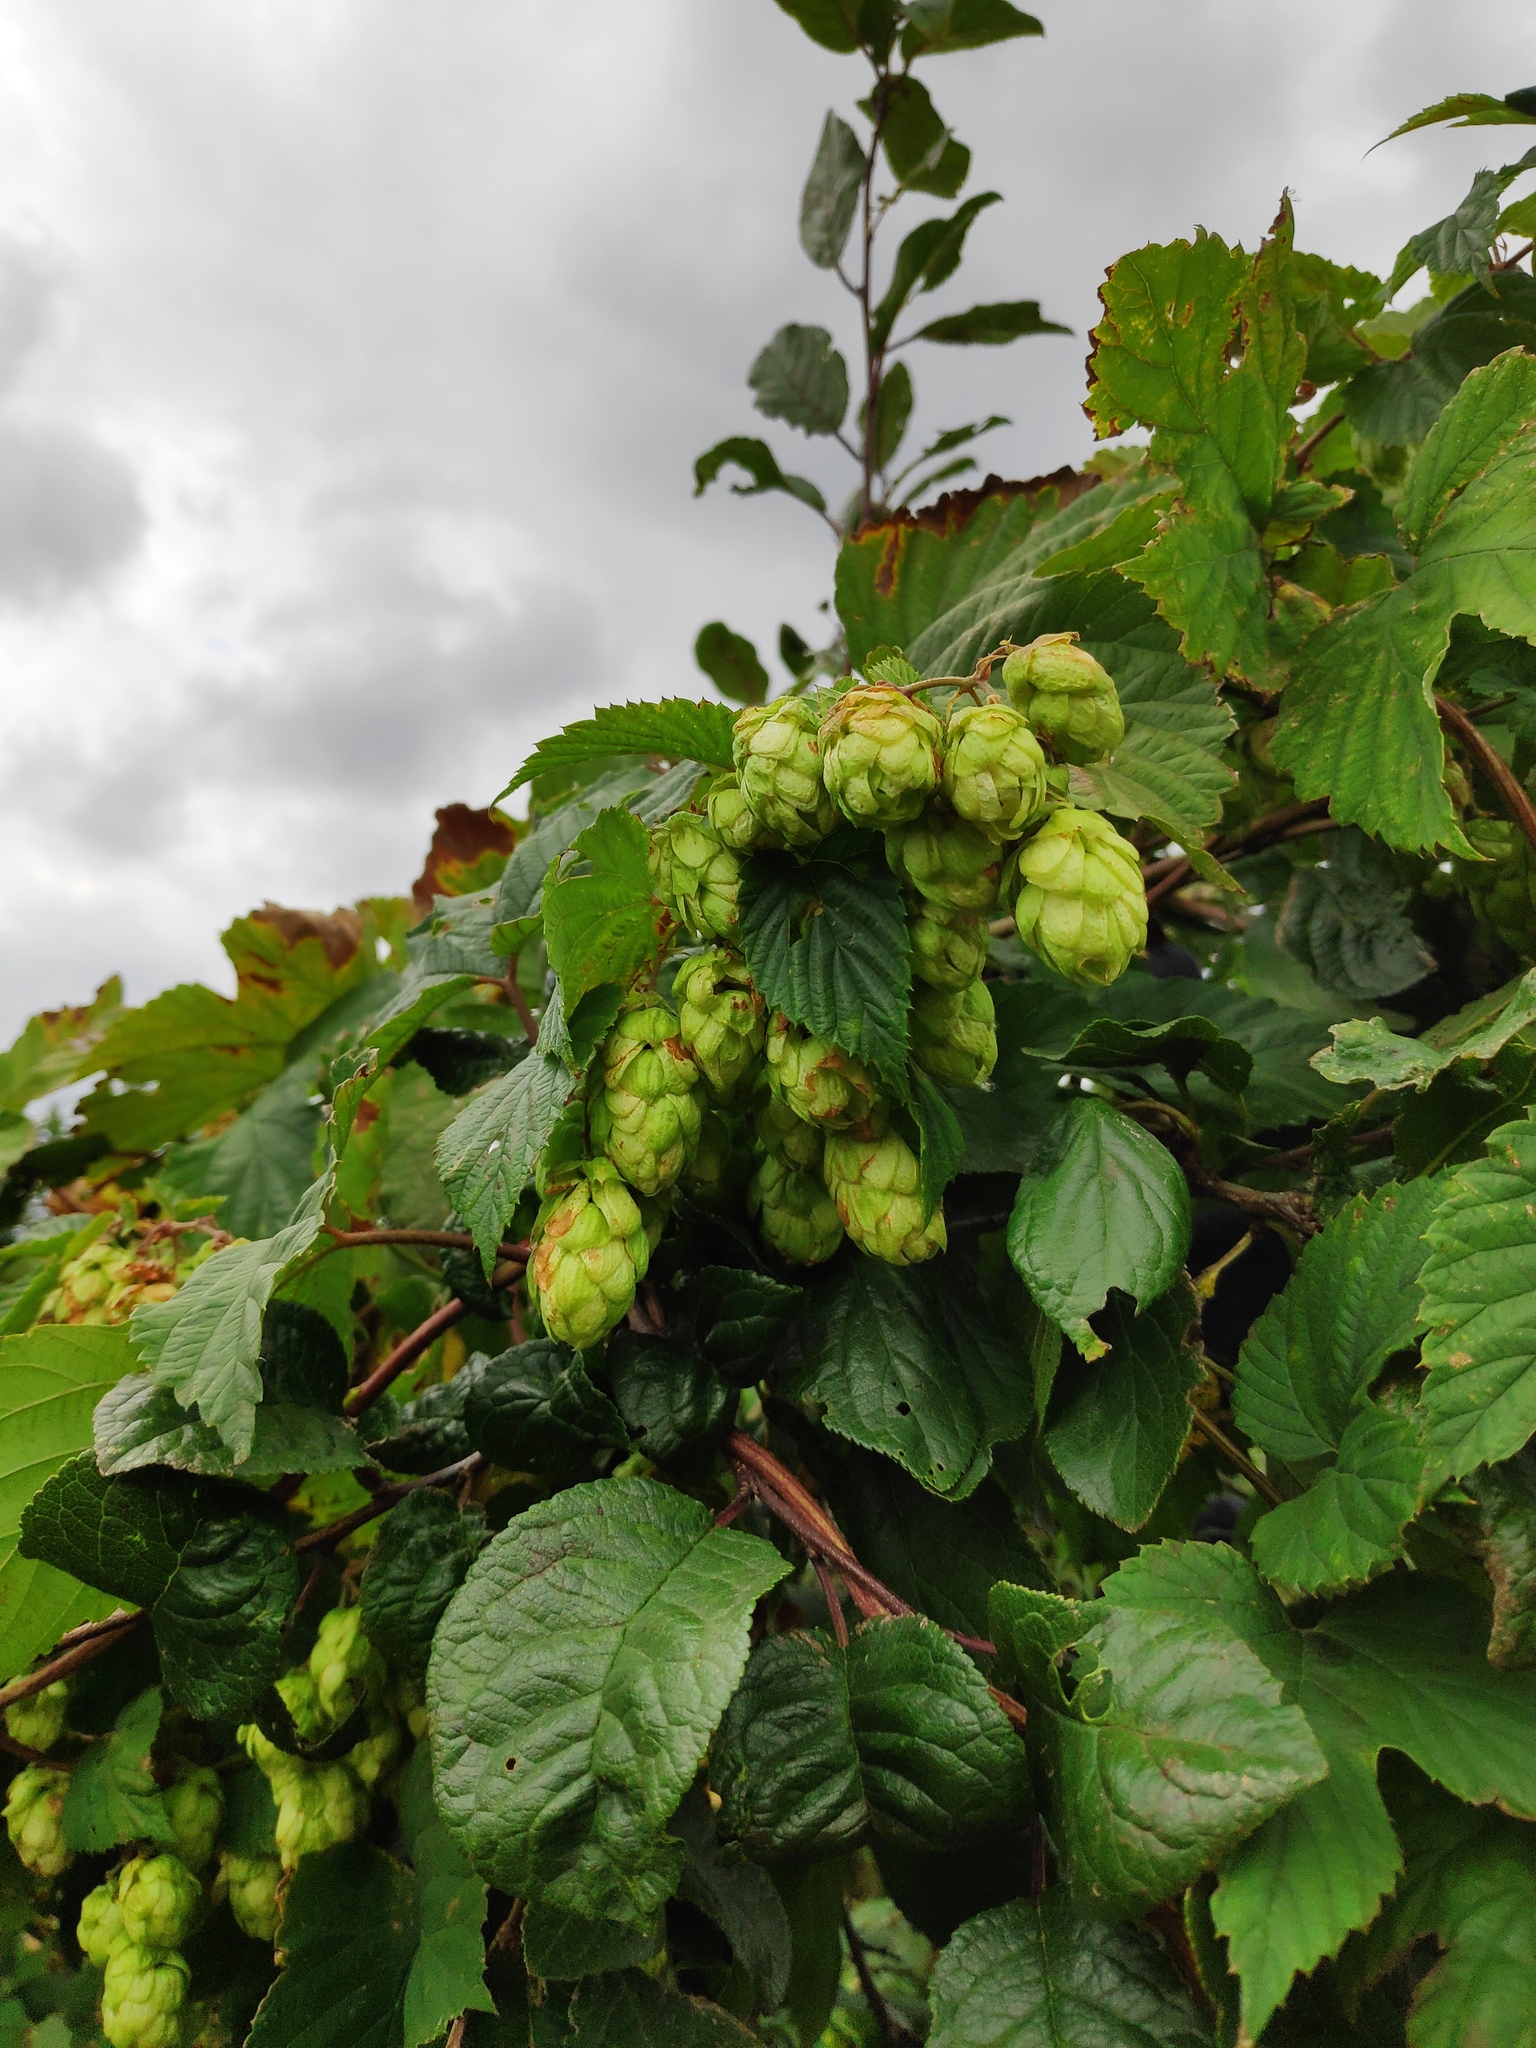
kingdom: Plantae
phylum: Tracheophyta
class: Magnoliopsida
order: Rosales
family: Cannabaceae
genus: Humulus
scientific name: Humulus lupulus
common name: Hop
